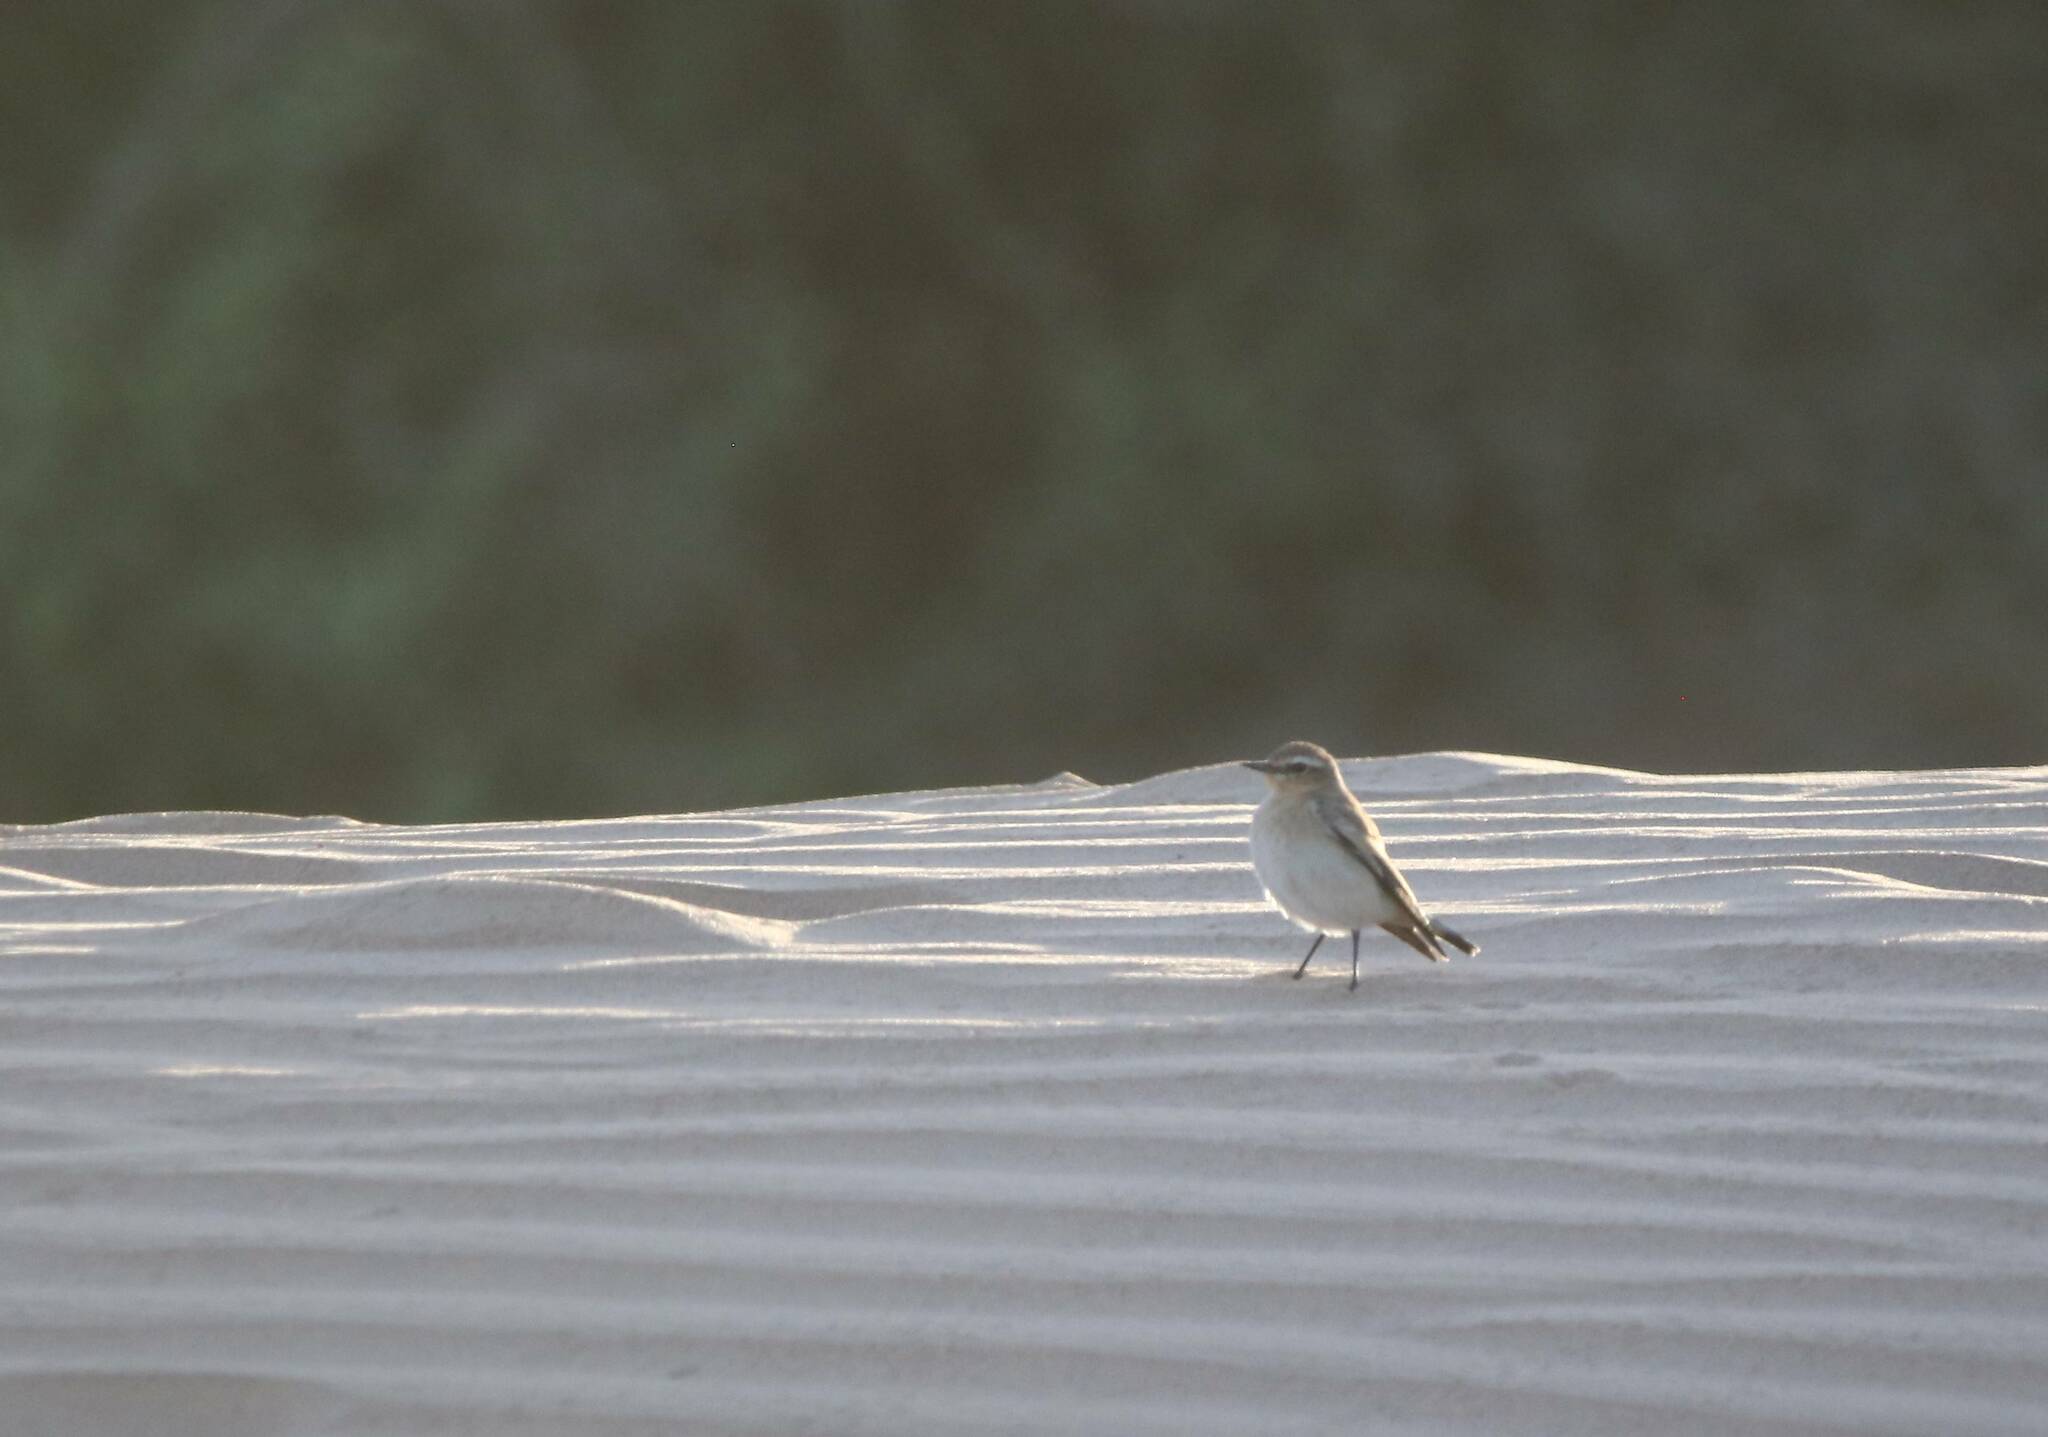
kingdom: Animalia
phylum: Chordata
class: Aves
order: Passeriformes
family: Muscicapidae
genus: Oenanthe
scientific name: Oenanthe isabellina
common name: Isabelline wheatear
